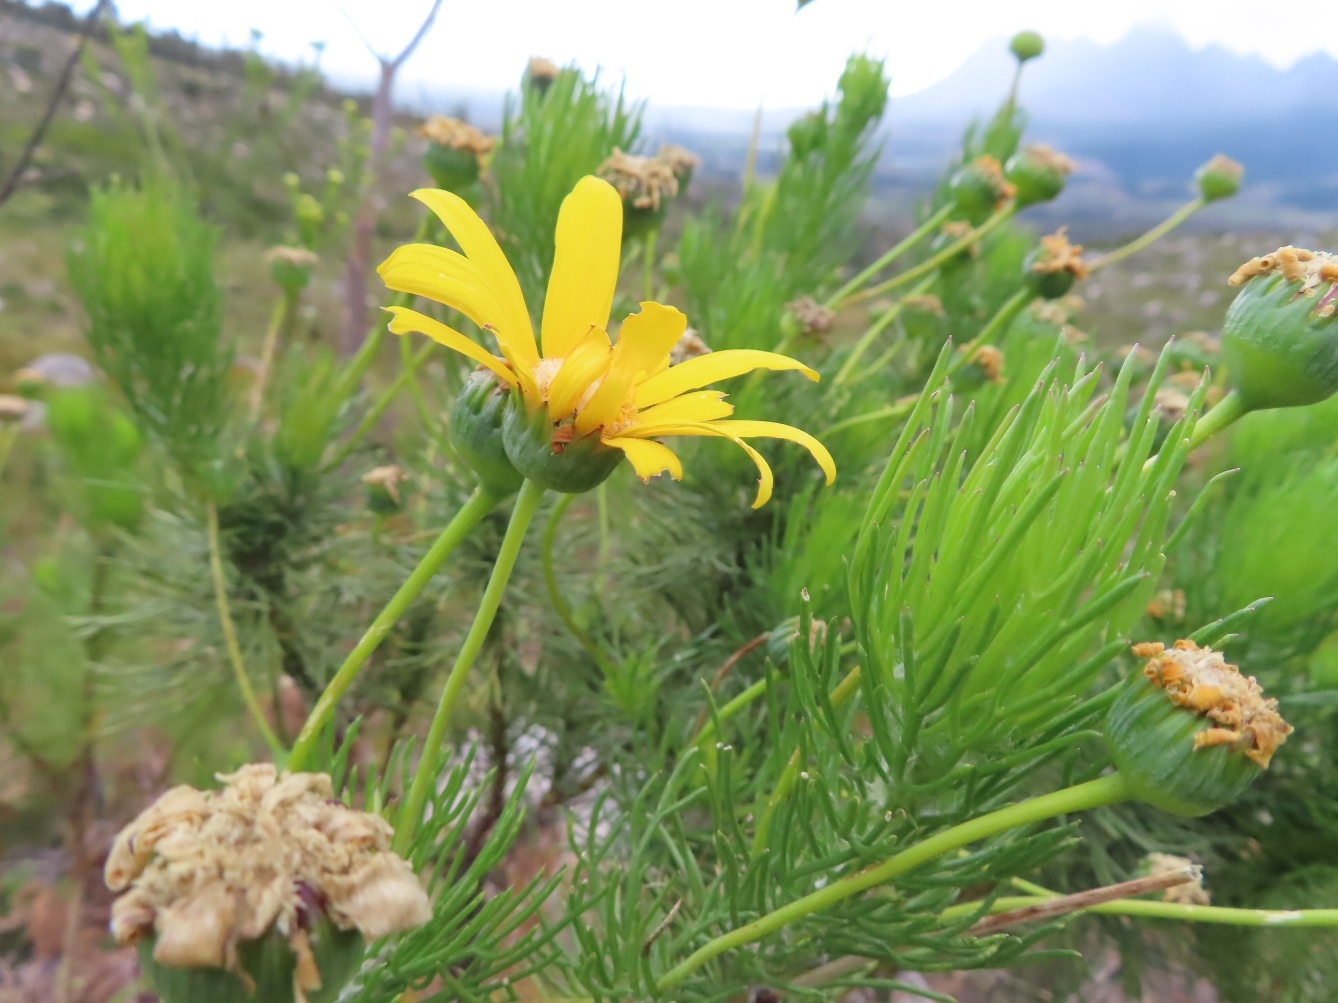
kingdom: Plantae
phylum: Tracheophyta
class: Magnoliopsida
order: Asterales
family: Asteraceae
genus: Euryops
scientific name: Euryops abrotanifolius
